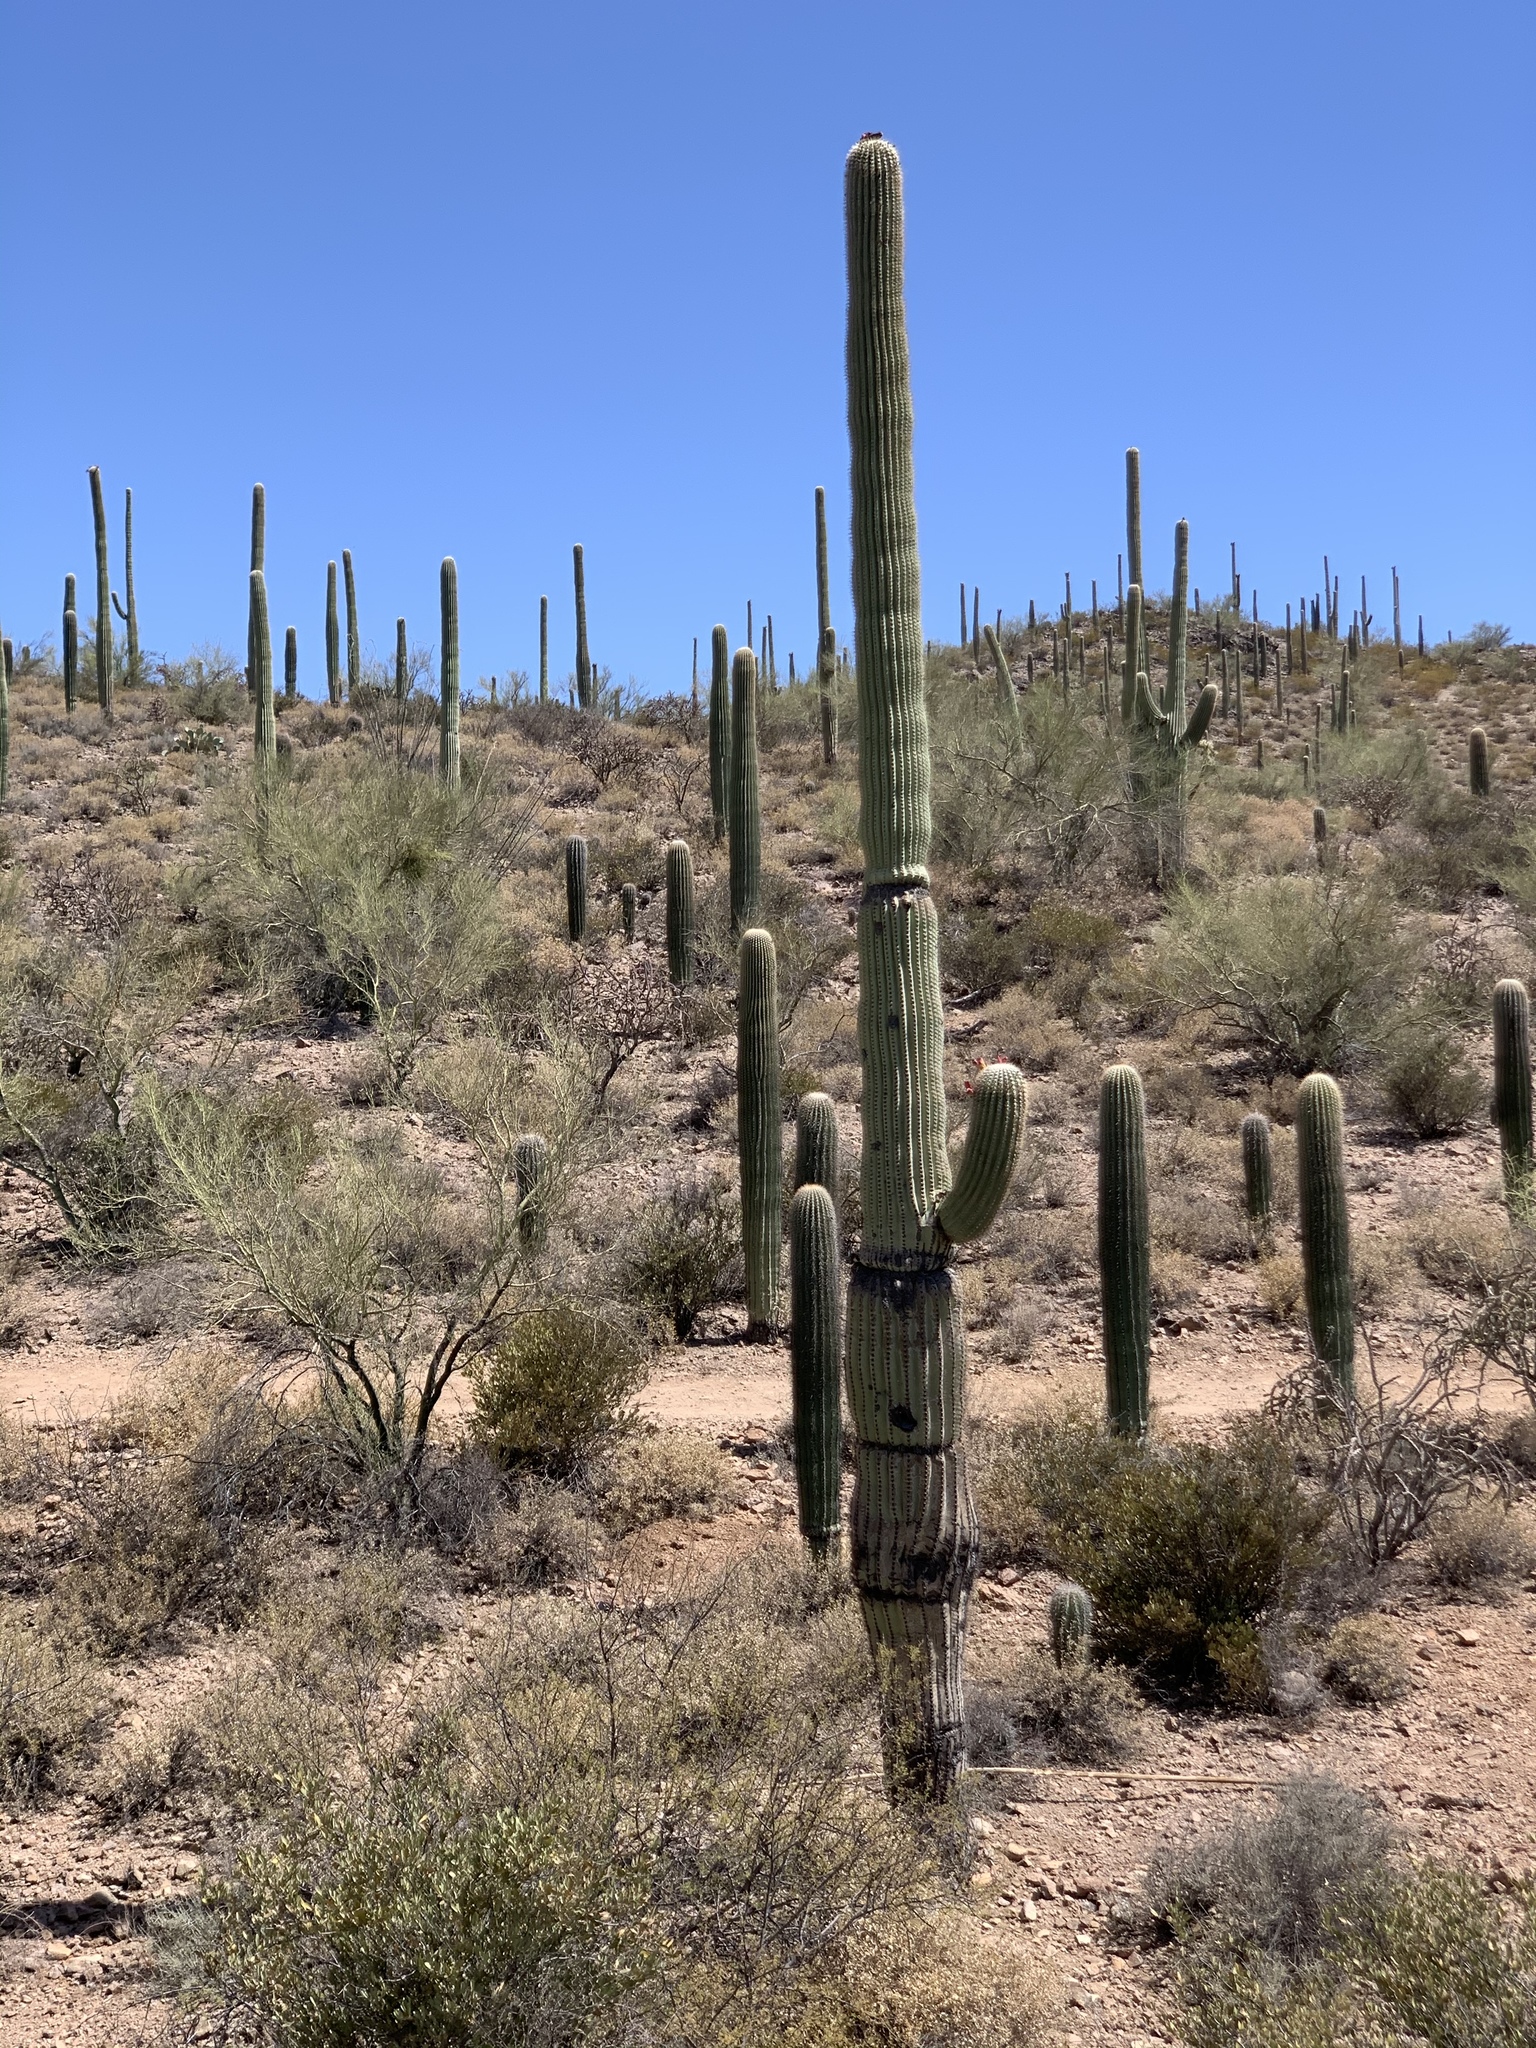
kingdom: Plantae
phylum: Tracheophyta
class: Magnoliopsida
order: Caryophyllales
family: Cactaceae
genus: Carnegiea
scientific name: Carnegiea gigantea
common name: Saguaro
